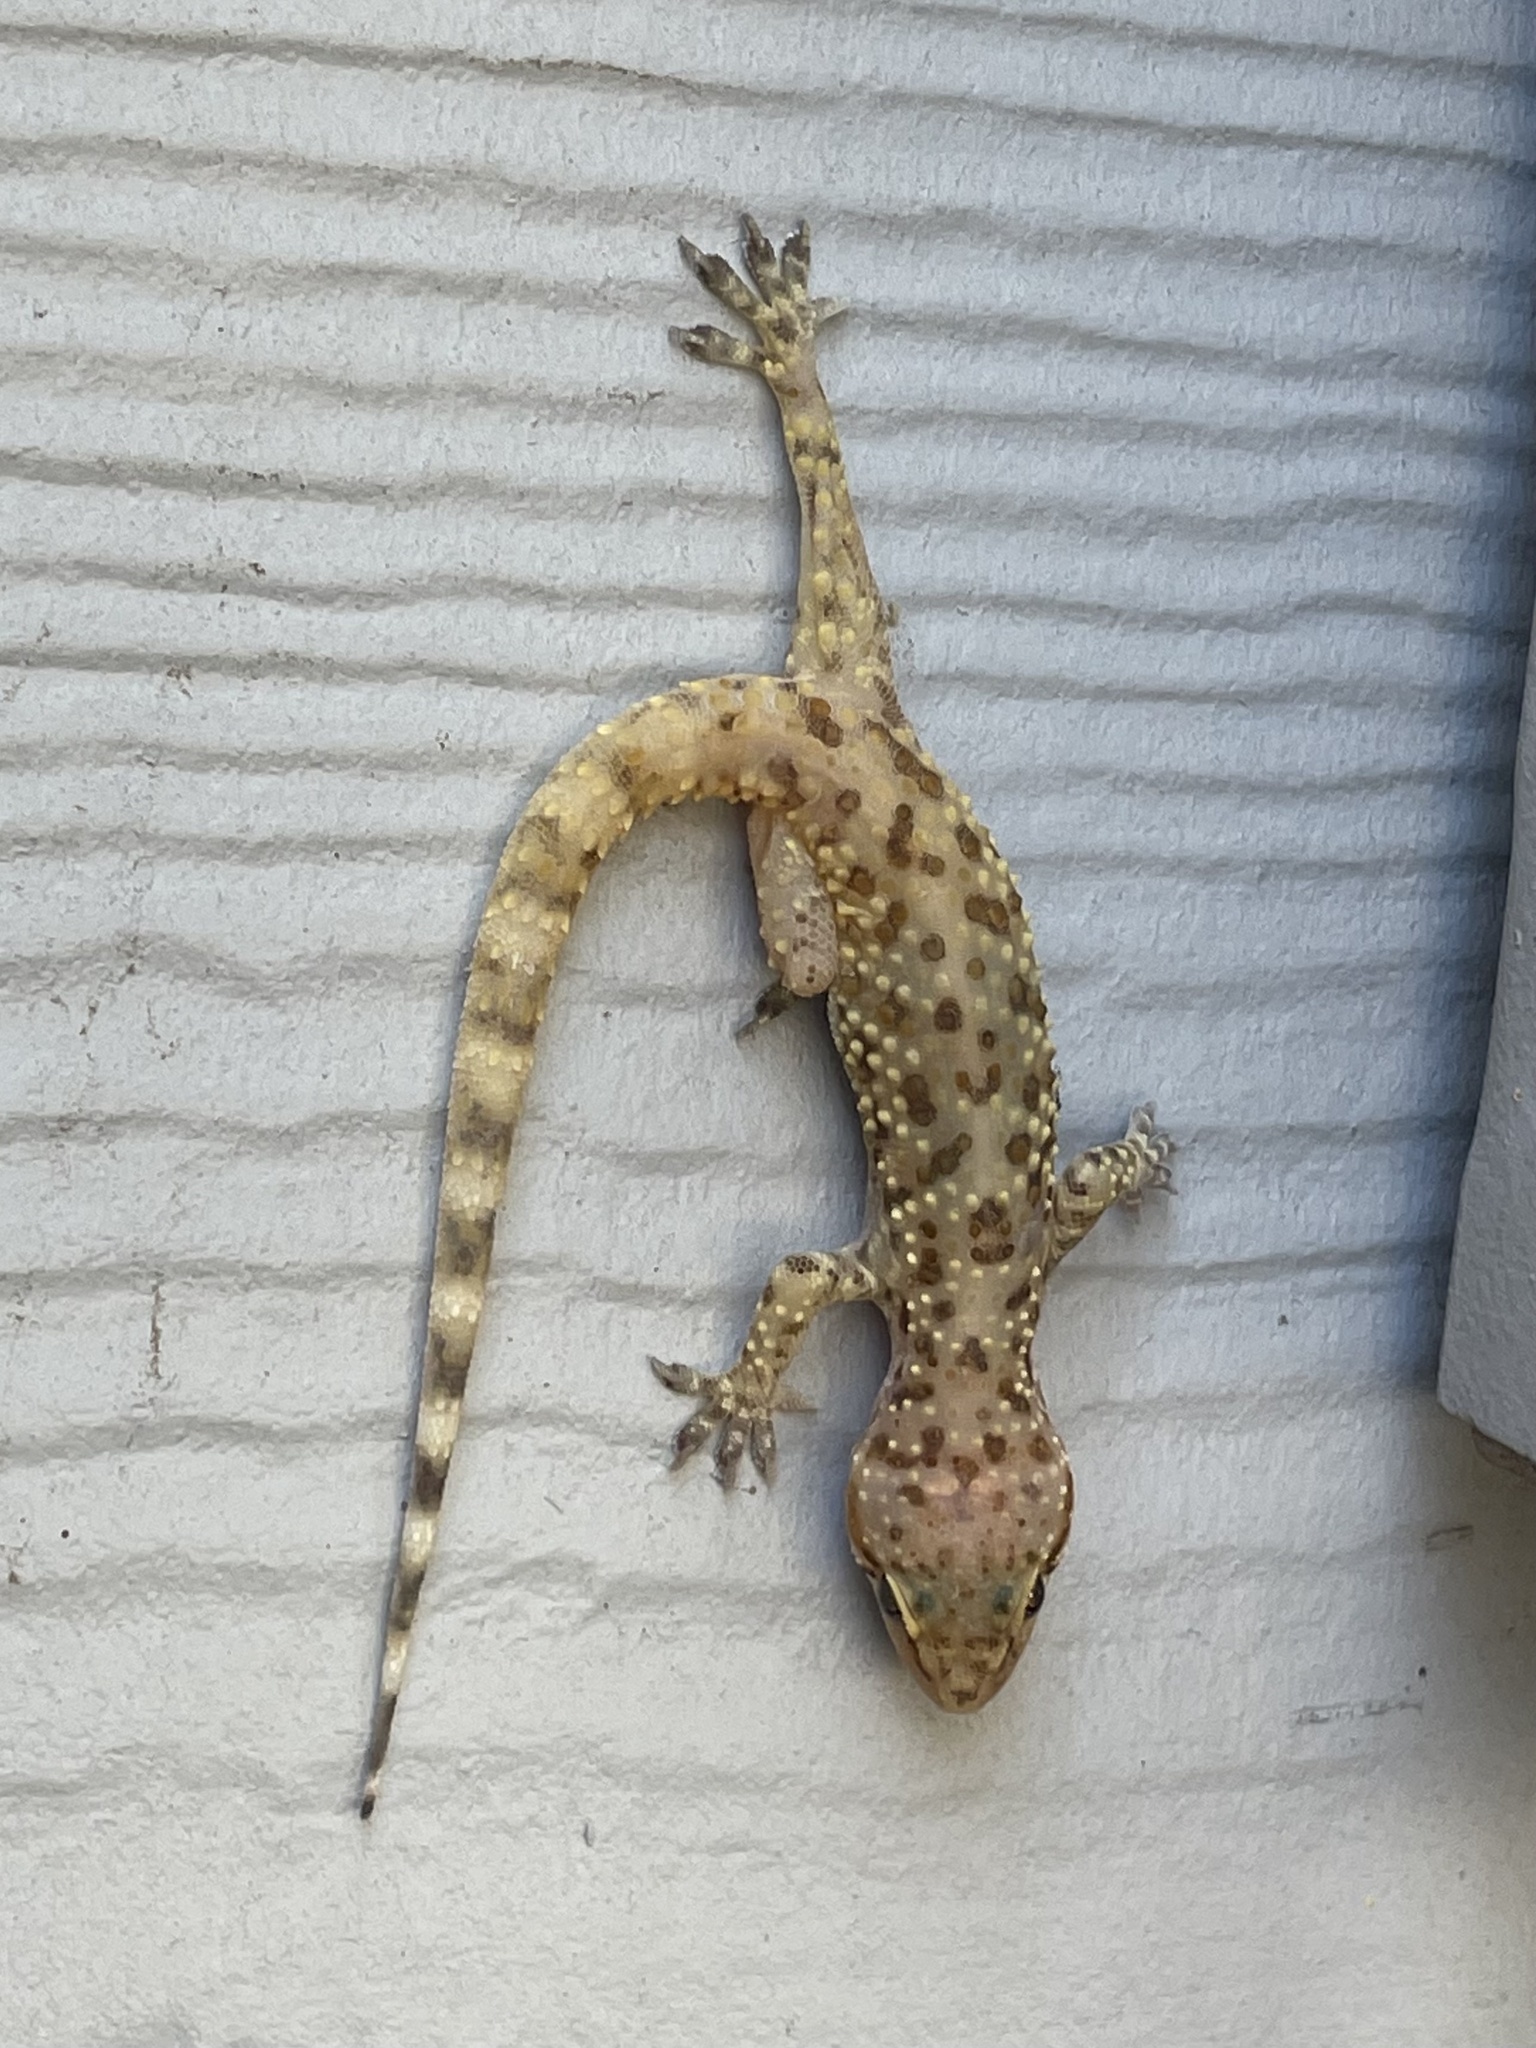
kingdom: Animalia
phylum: Chordata
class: Squamata
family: Gekkonidae
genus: Hemidactylus
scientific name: Hemidactylus turcicus
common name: Turkish gecko
